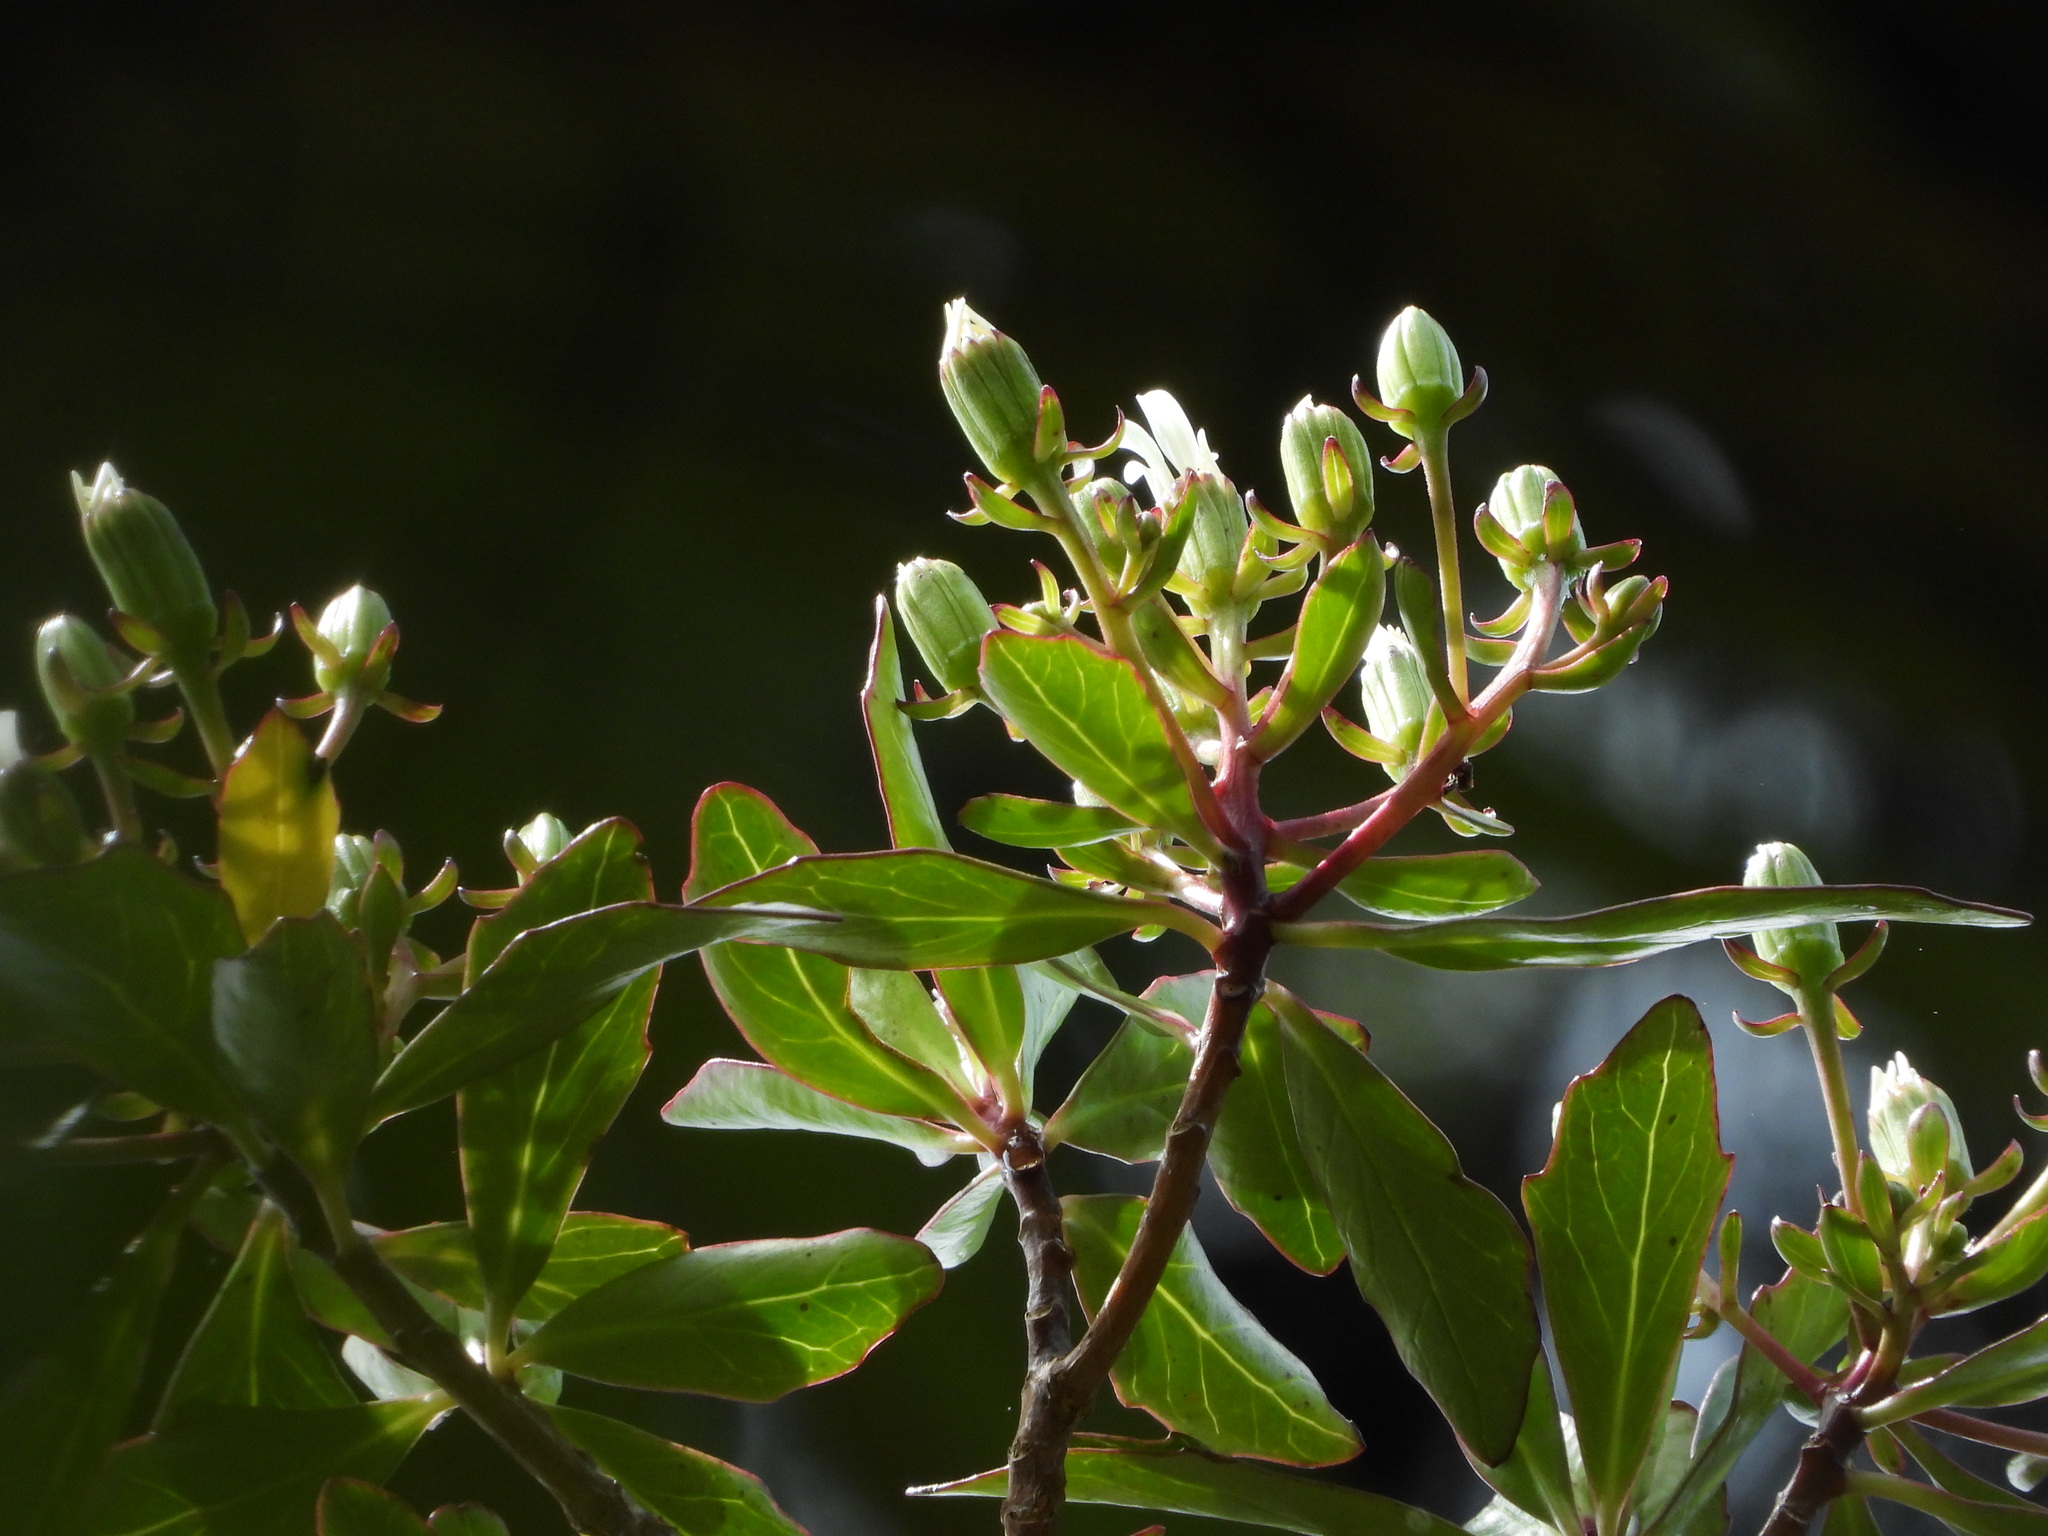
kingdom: Plantae
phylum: Tracheophyta
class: Magnoliopsida
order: Asterales
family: Asteraceae
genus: Brachyglottis
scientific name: Brachyglottis kirkii
